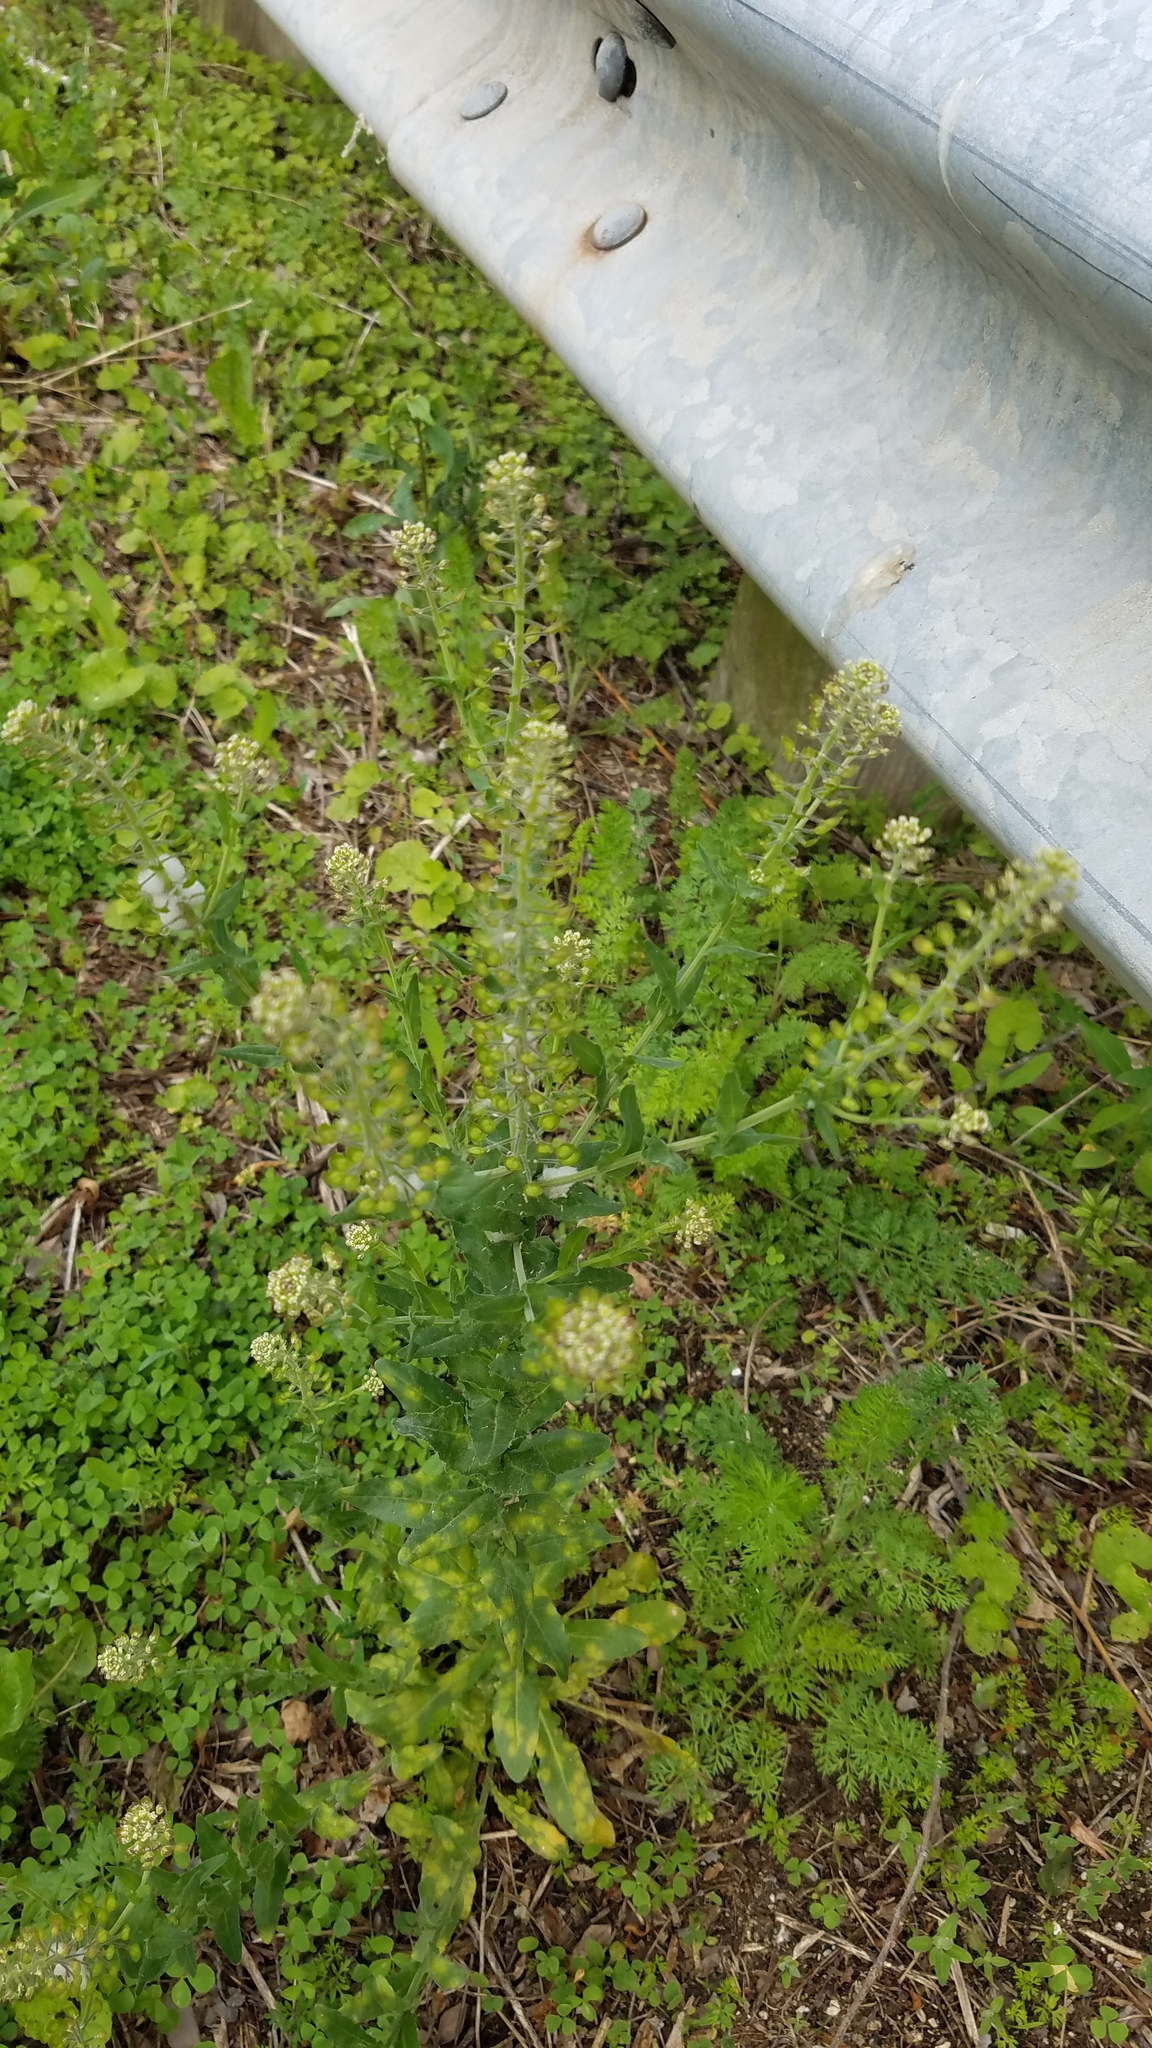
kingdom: Plantae
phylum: Tracheophyta
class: Magnoliopsida
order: Brassicales
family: Brassicaceae
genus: Lepidium
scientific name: Lepidium campestre
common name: Field pepperwort
